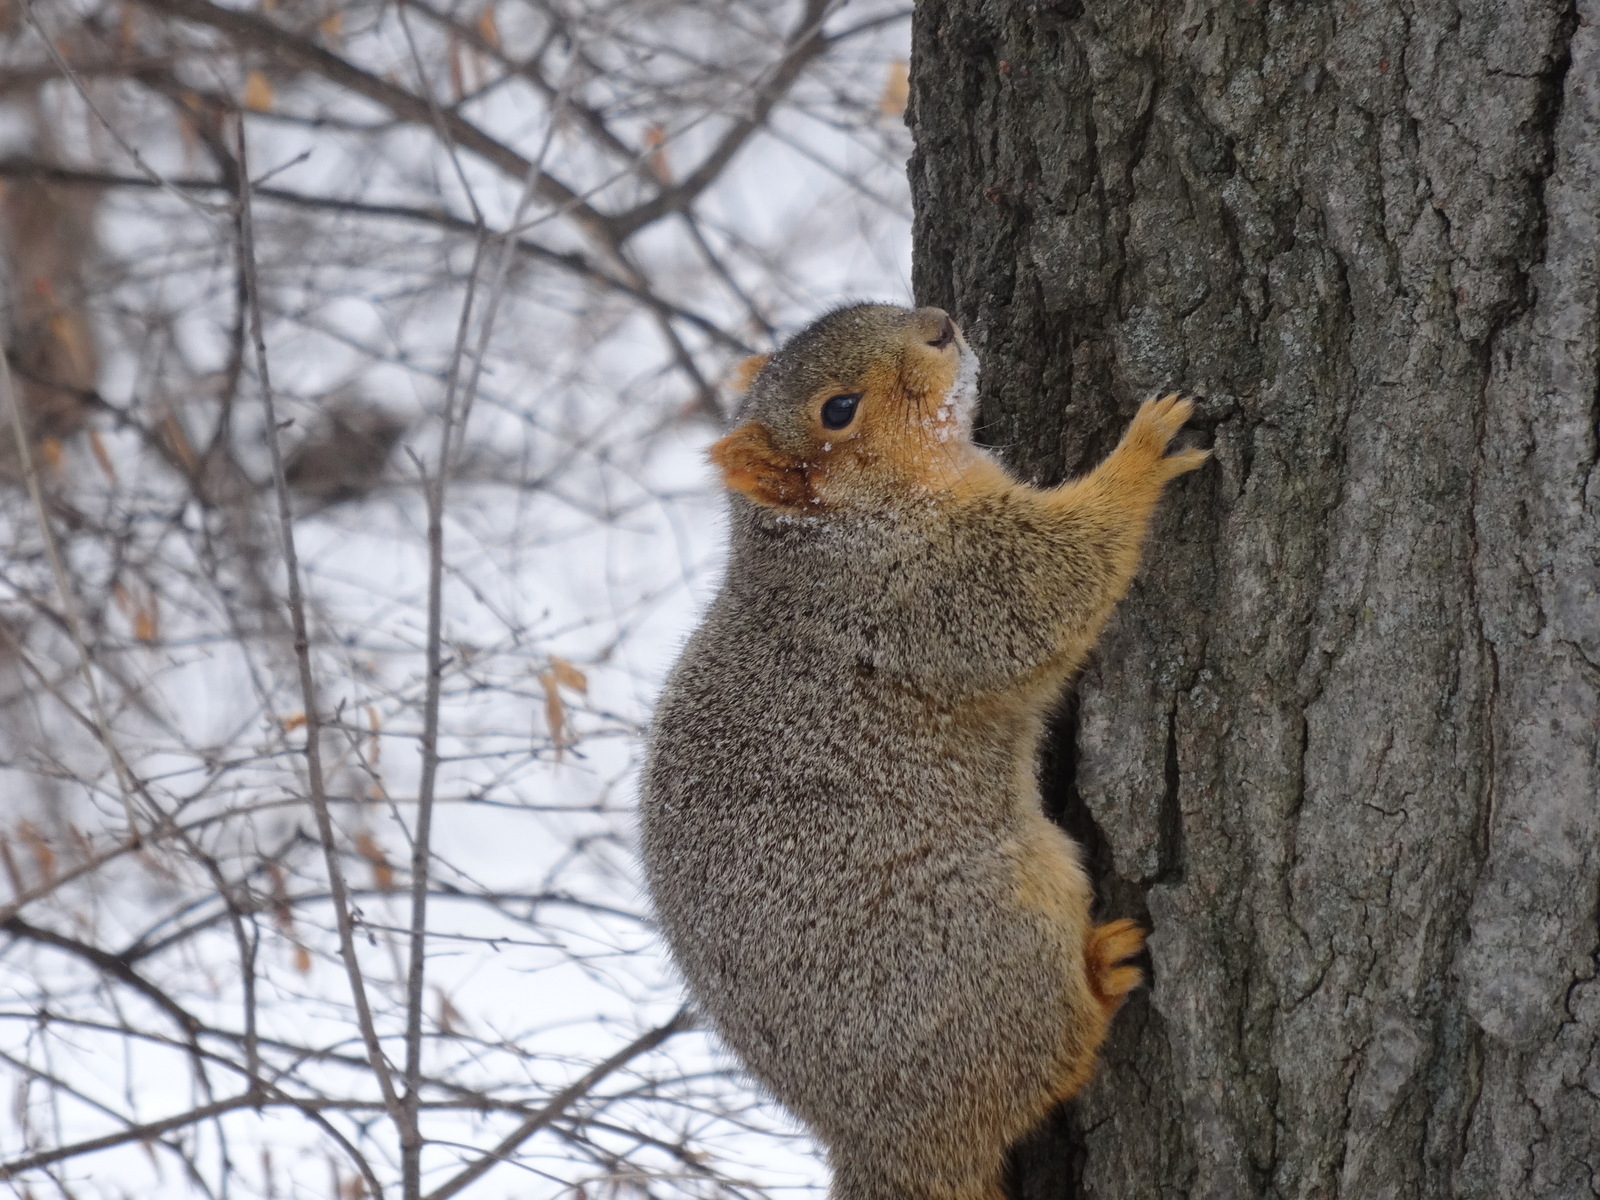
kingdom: Animalia
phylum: Chordata
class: Mammalia
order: Rodentia
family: Sciuridae
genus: Sciurus
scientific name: Sciurus niger
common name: Fox squirrel
